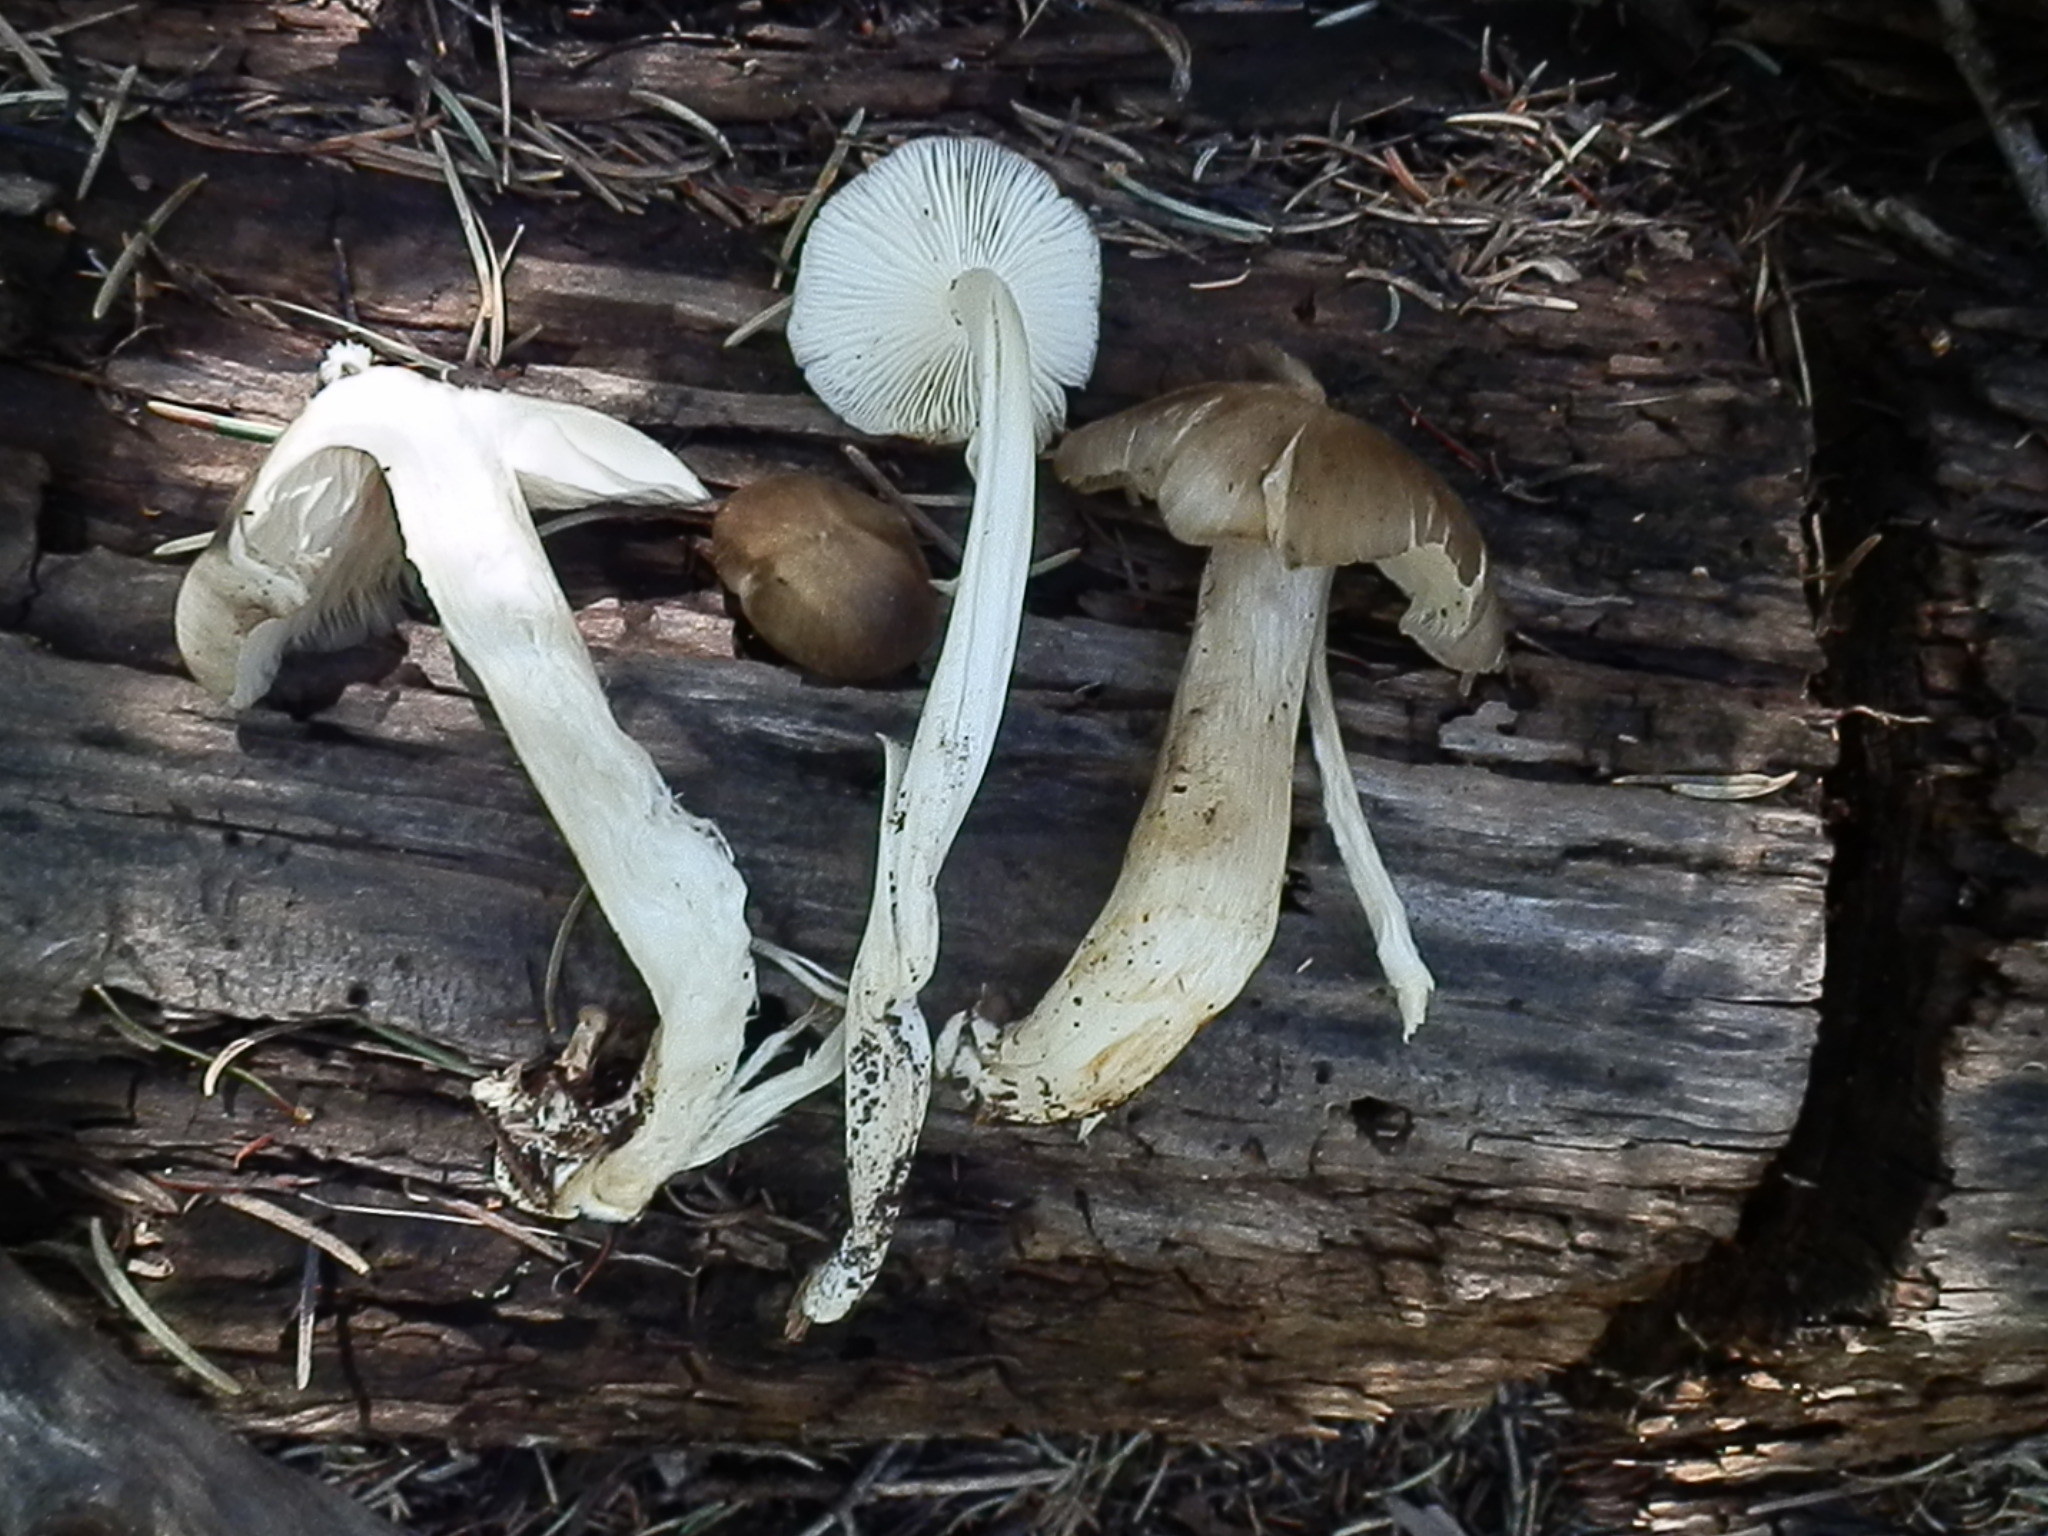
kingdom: Fungi
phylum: Basidiomycota
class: Agaricomycetes
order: Agaricales
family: Tricholomataceae
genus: Megacollybia
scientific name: Megacollybia fallax
